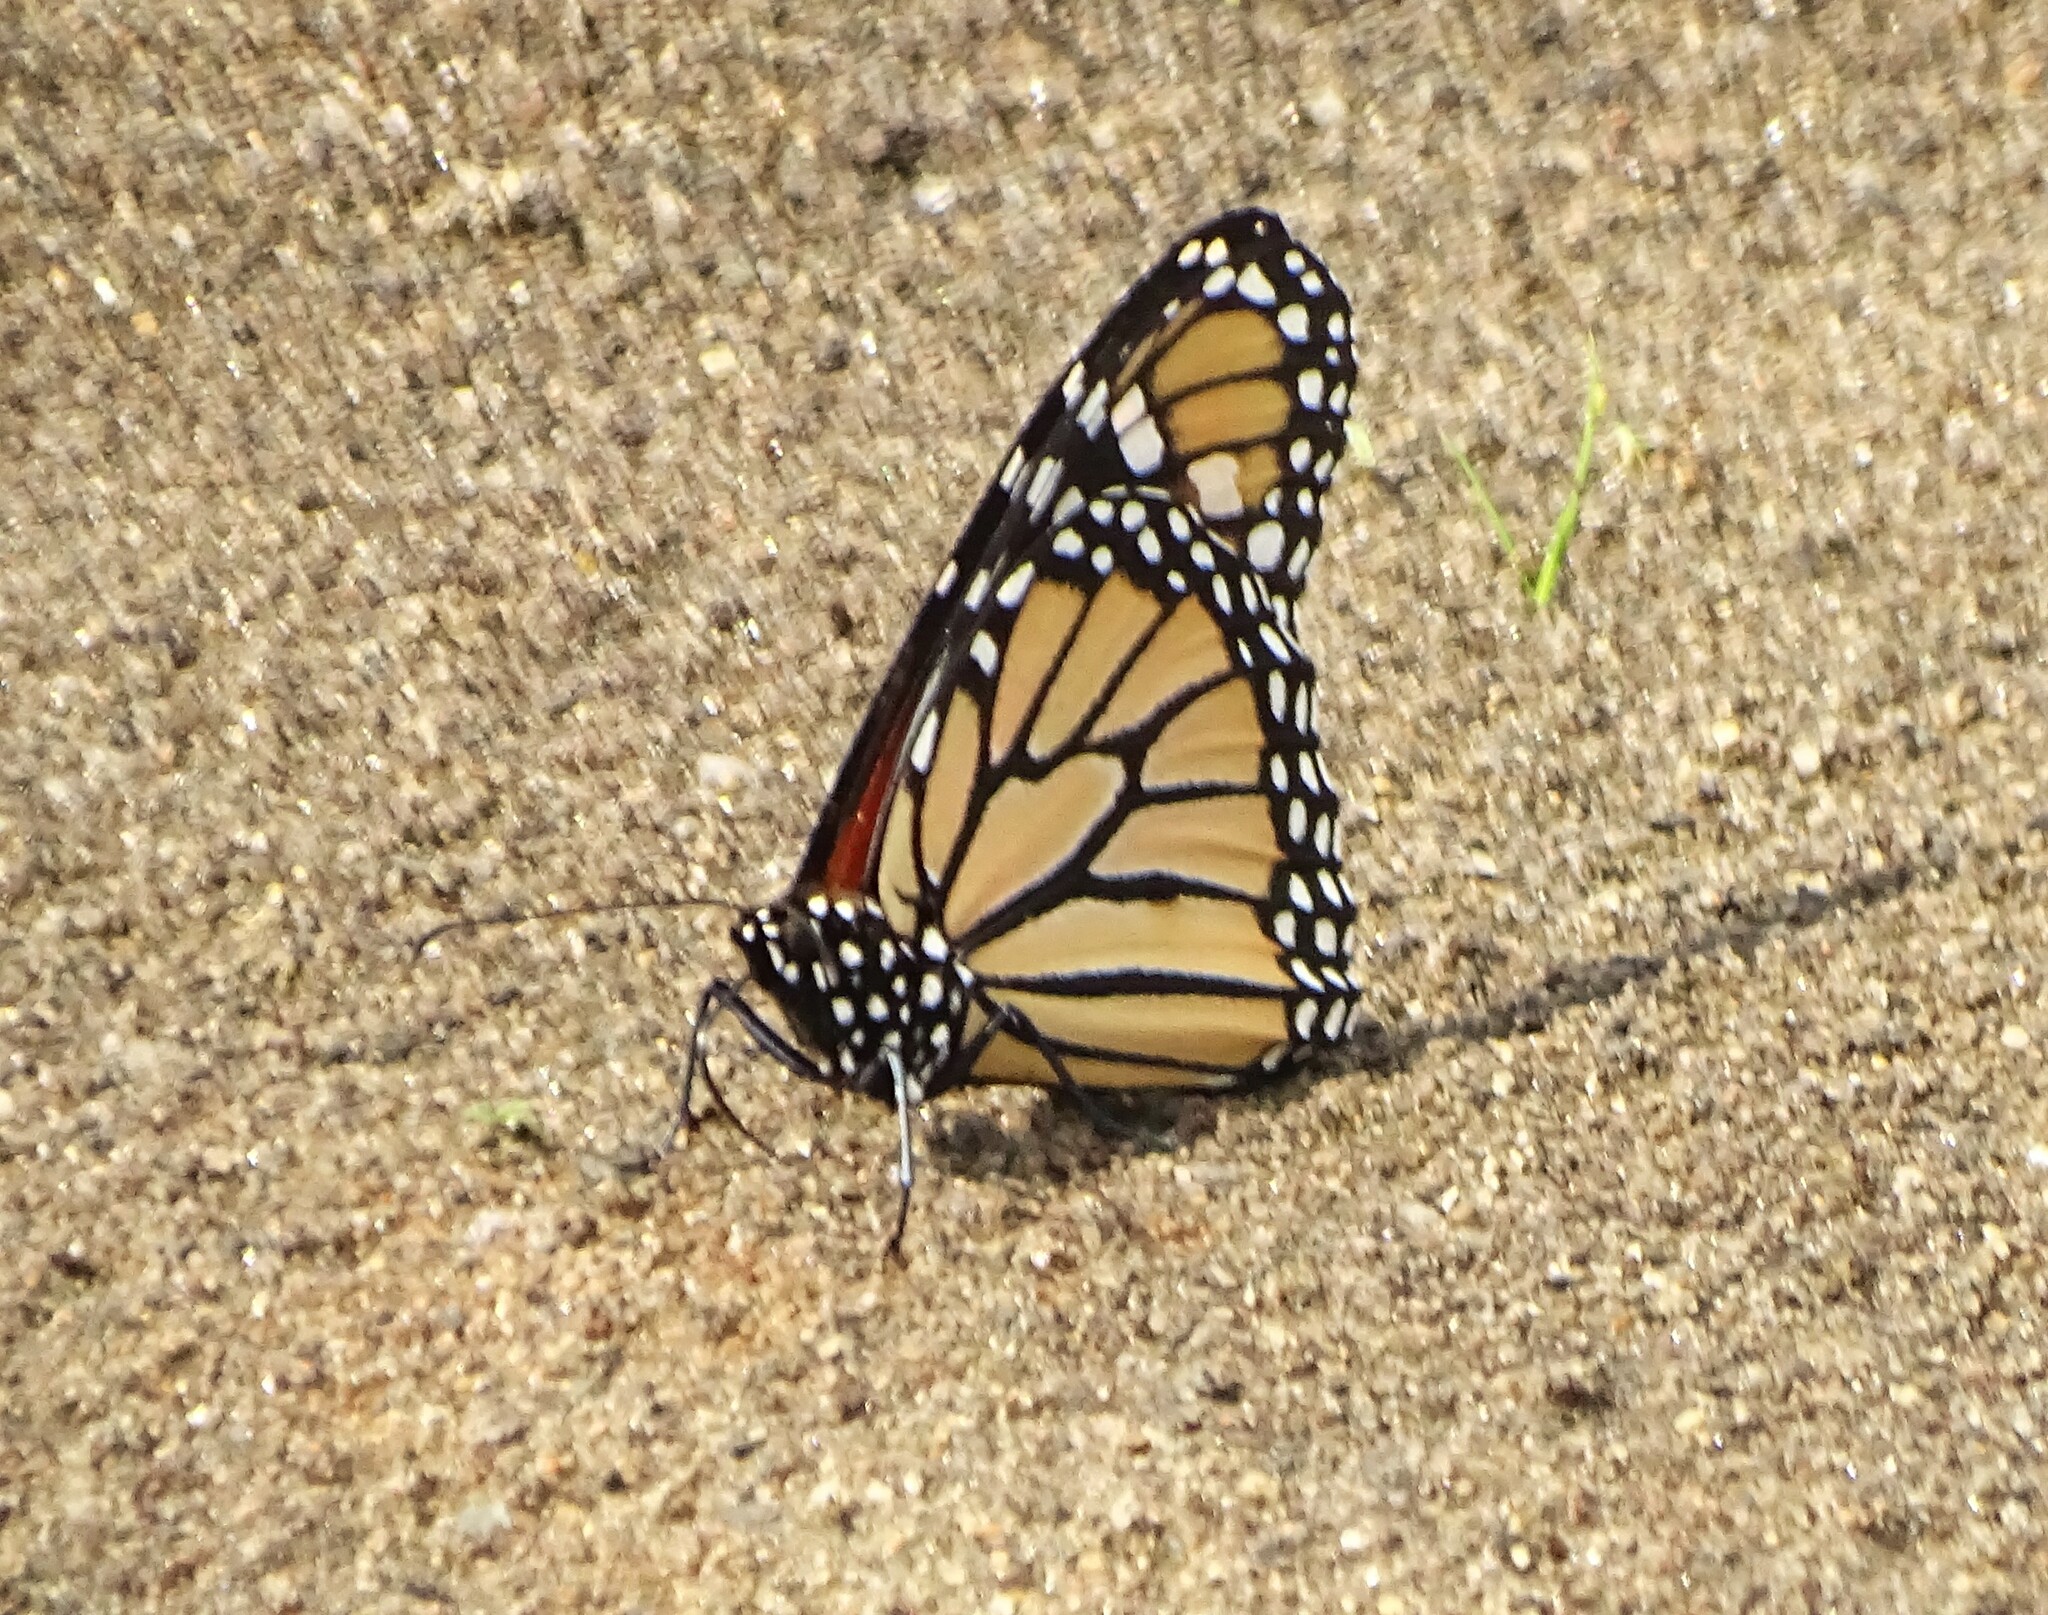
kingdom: Animalia
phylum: Arthropoda
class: Insecta
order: Lepidoptera
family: Nymphalidae
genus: Danaus
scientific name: Danaus plexippus
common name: Monarch
